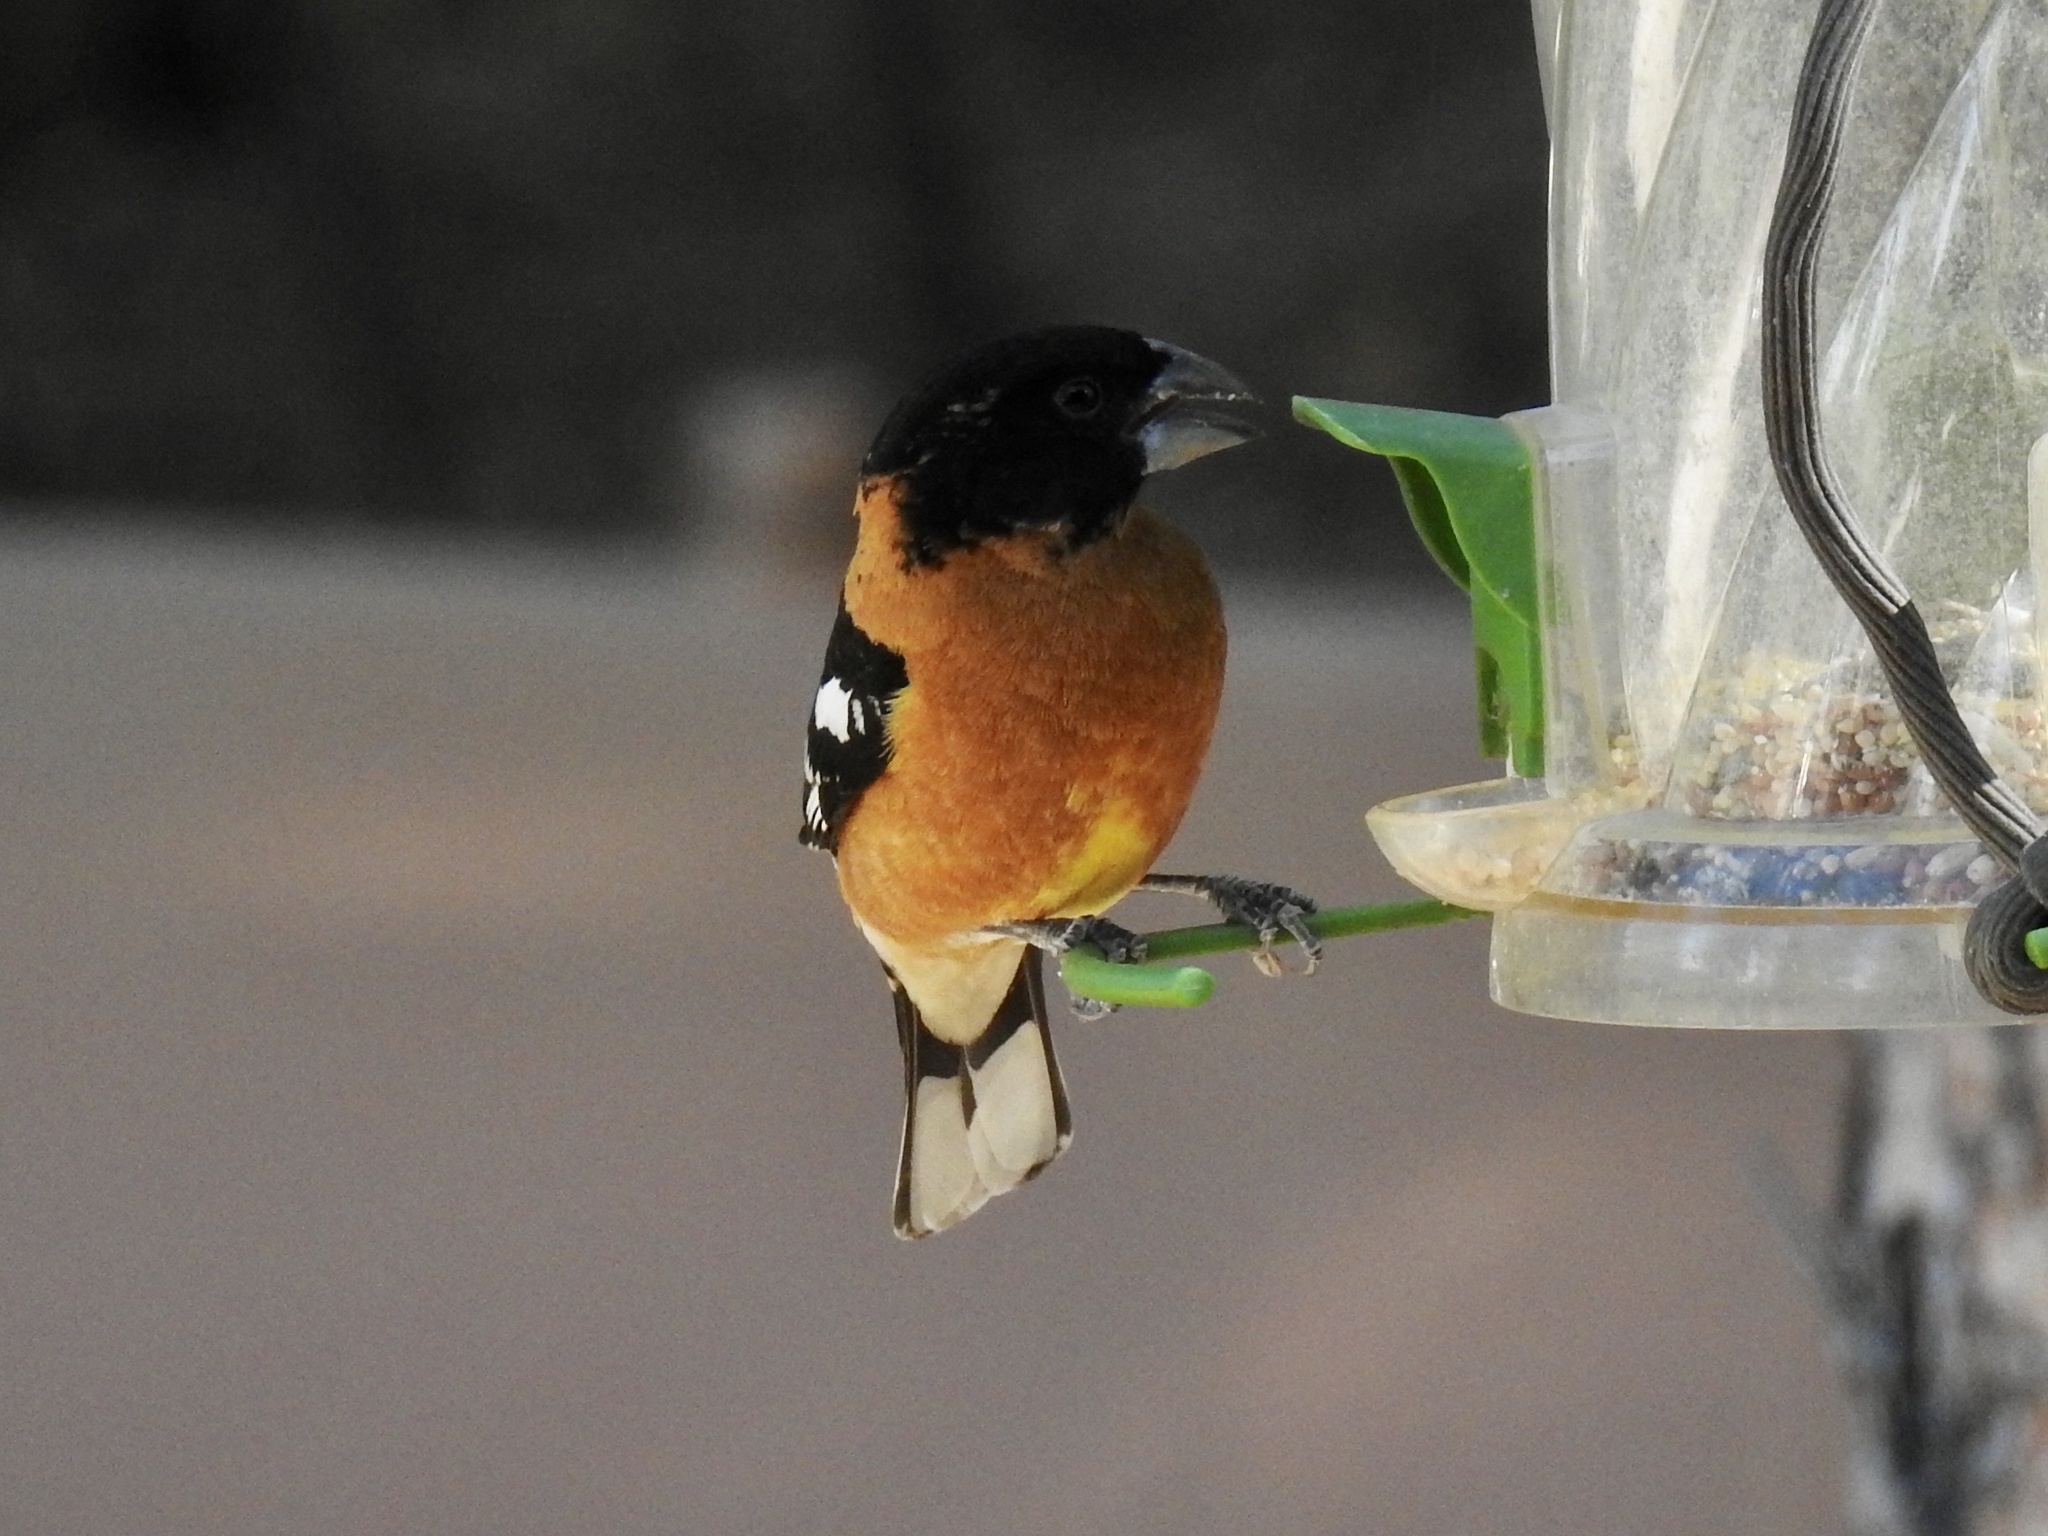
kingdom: Animalia
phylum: Chordata
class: Aves
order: Passeriformes
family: Cardinalidae
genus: Pheucticus
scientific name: Pheucticus melanocephalus
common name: Black-headed grosbeak
